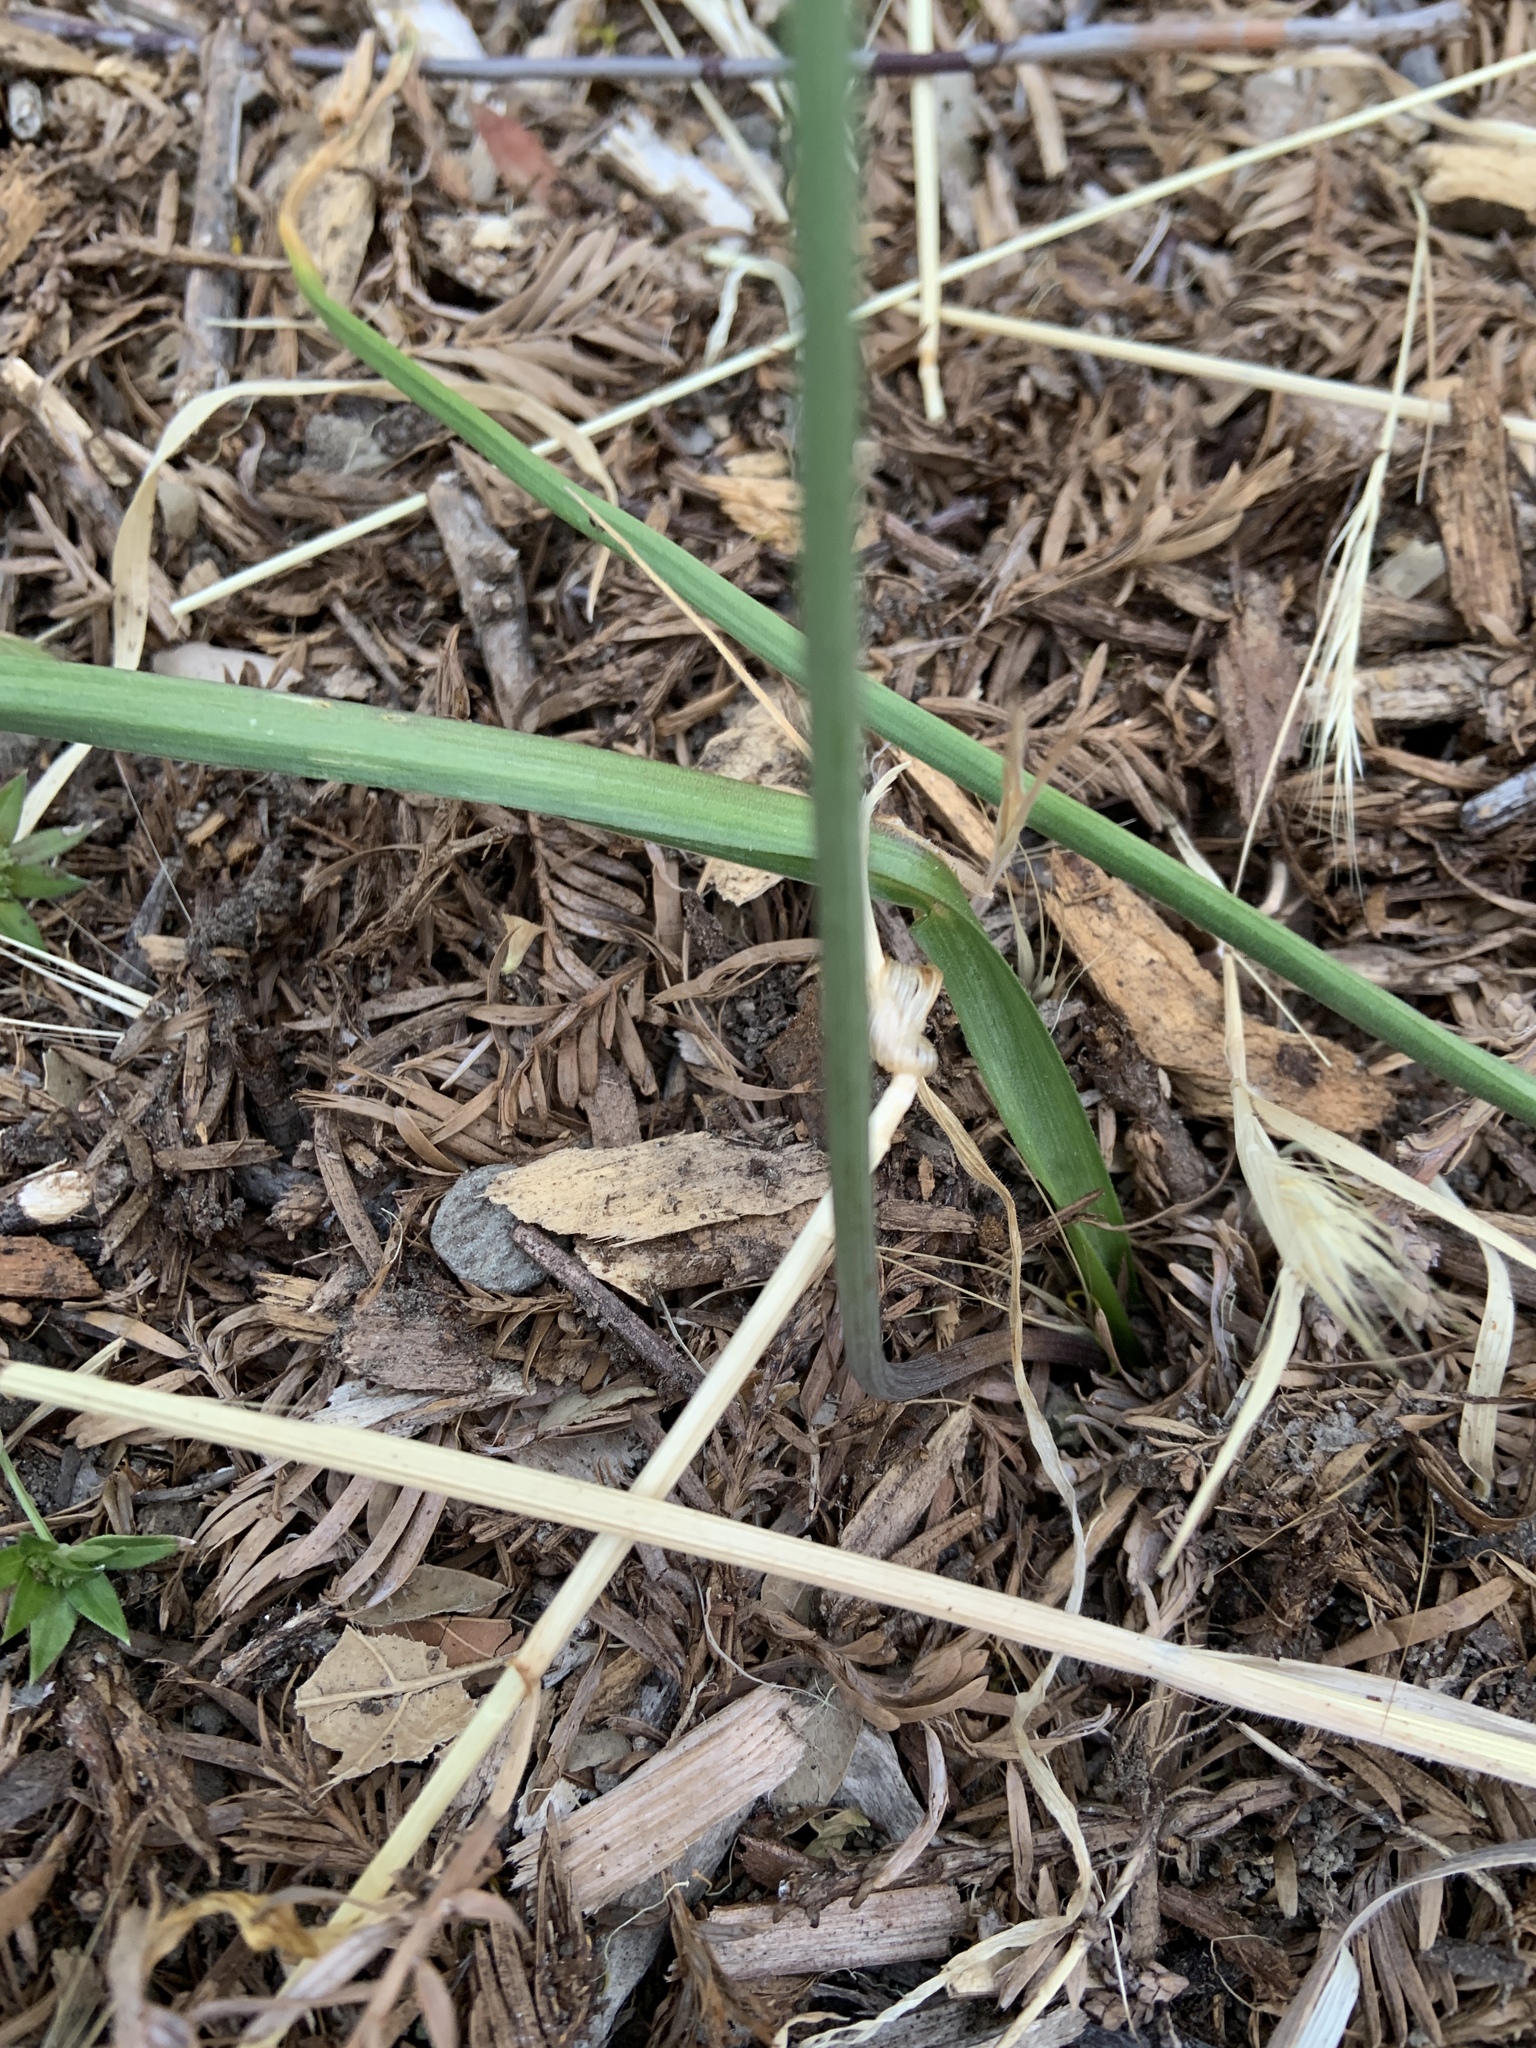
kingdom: Plantae
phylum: Tracheophyta
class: Liliopsida
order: Asparagales
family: Asparagaceae
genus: Triteleia
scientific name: Triteleia ixioides
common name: Yellow-brodiaea
